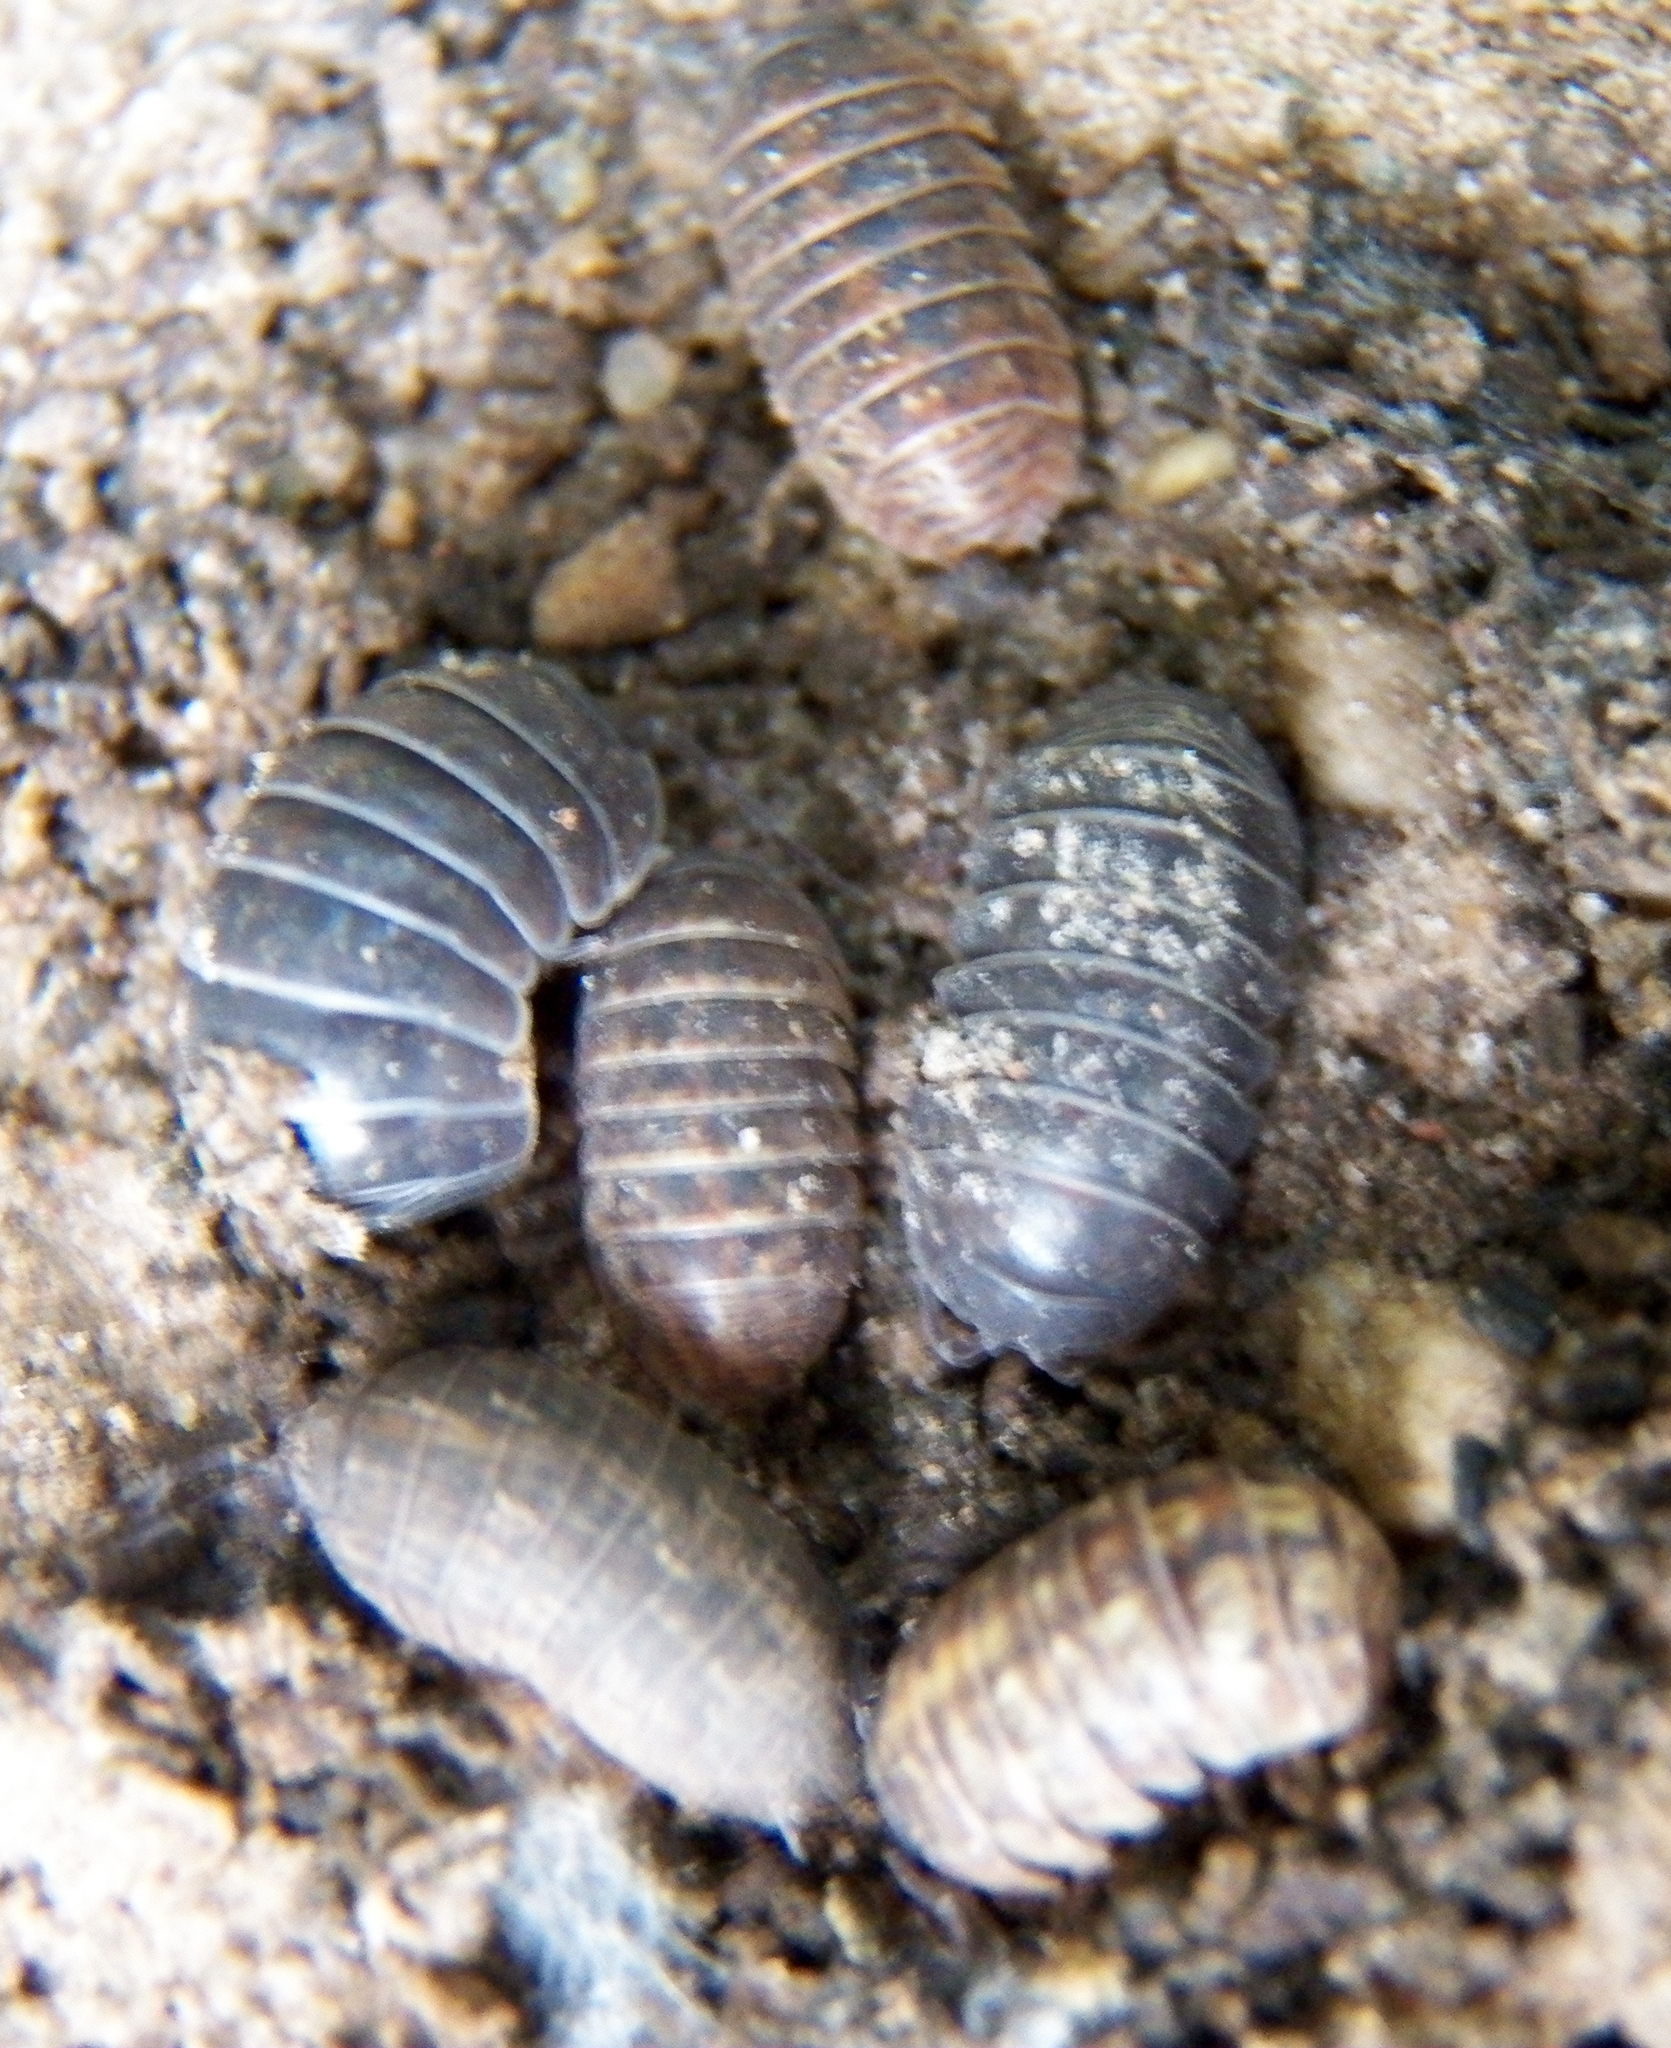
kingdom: Animalia
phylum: Arthropoda
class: Malacostraca
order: Isopoda
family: Armadillidiidae
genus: Armadillidium
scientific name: Armadillidium vulgare
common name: Common pill woodlouse
